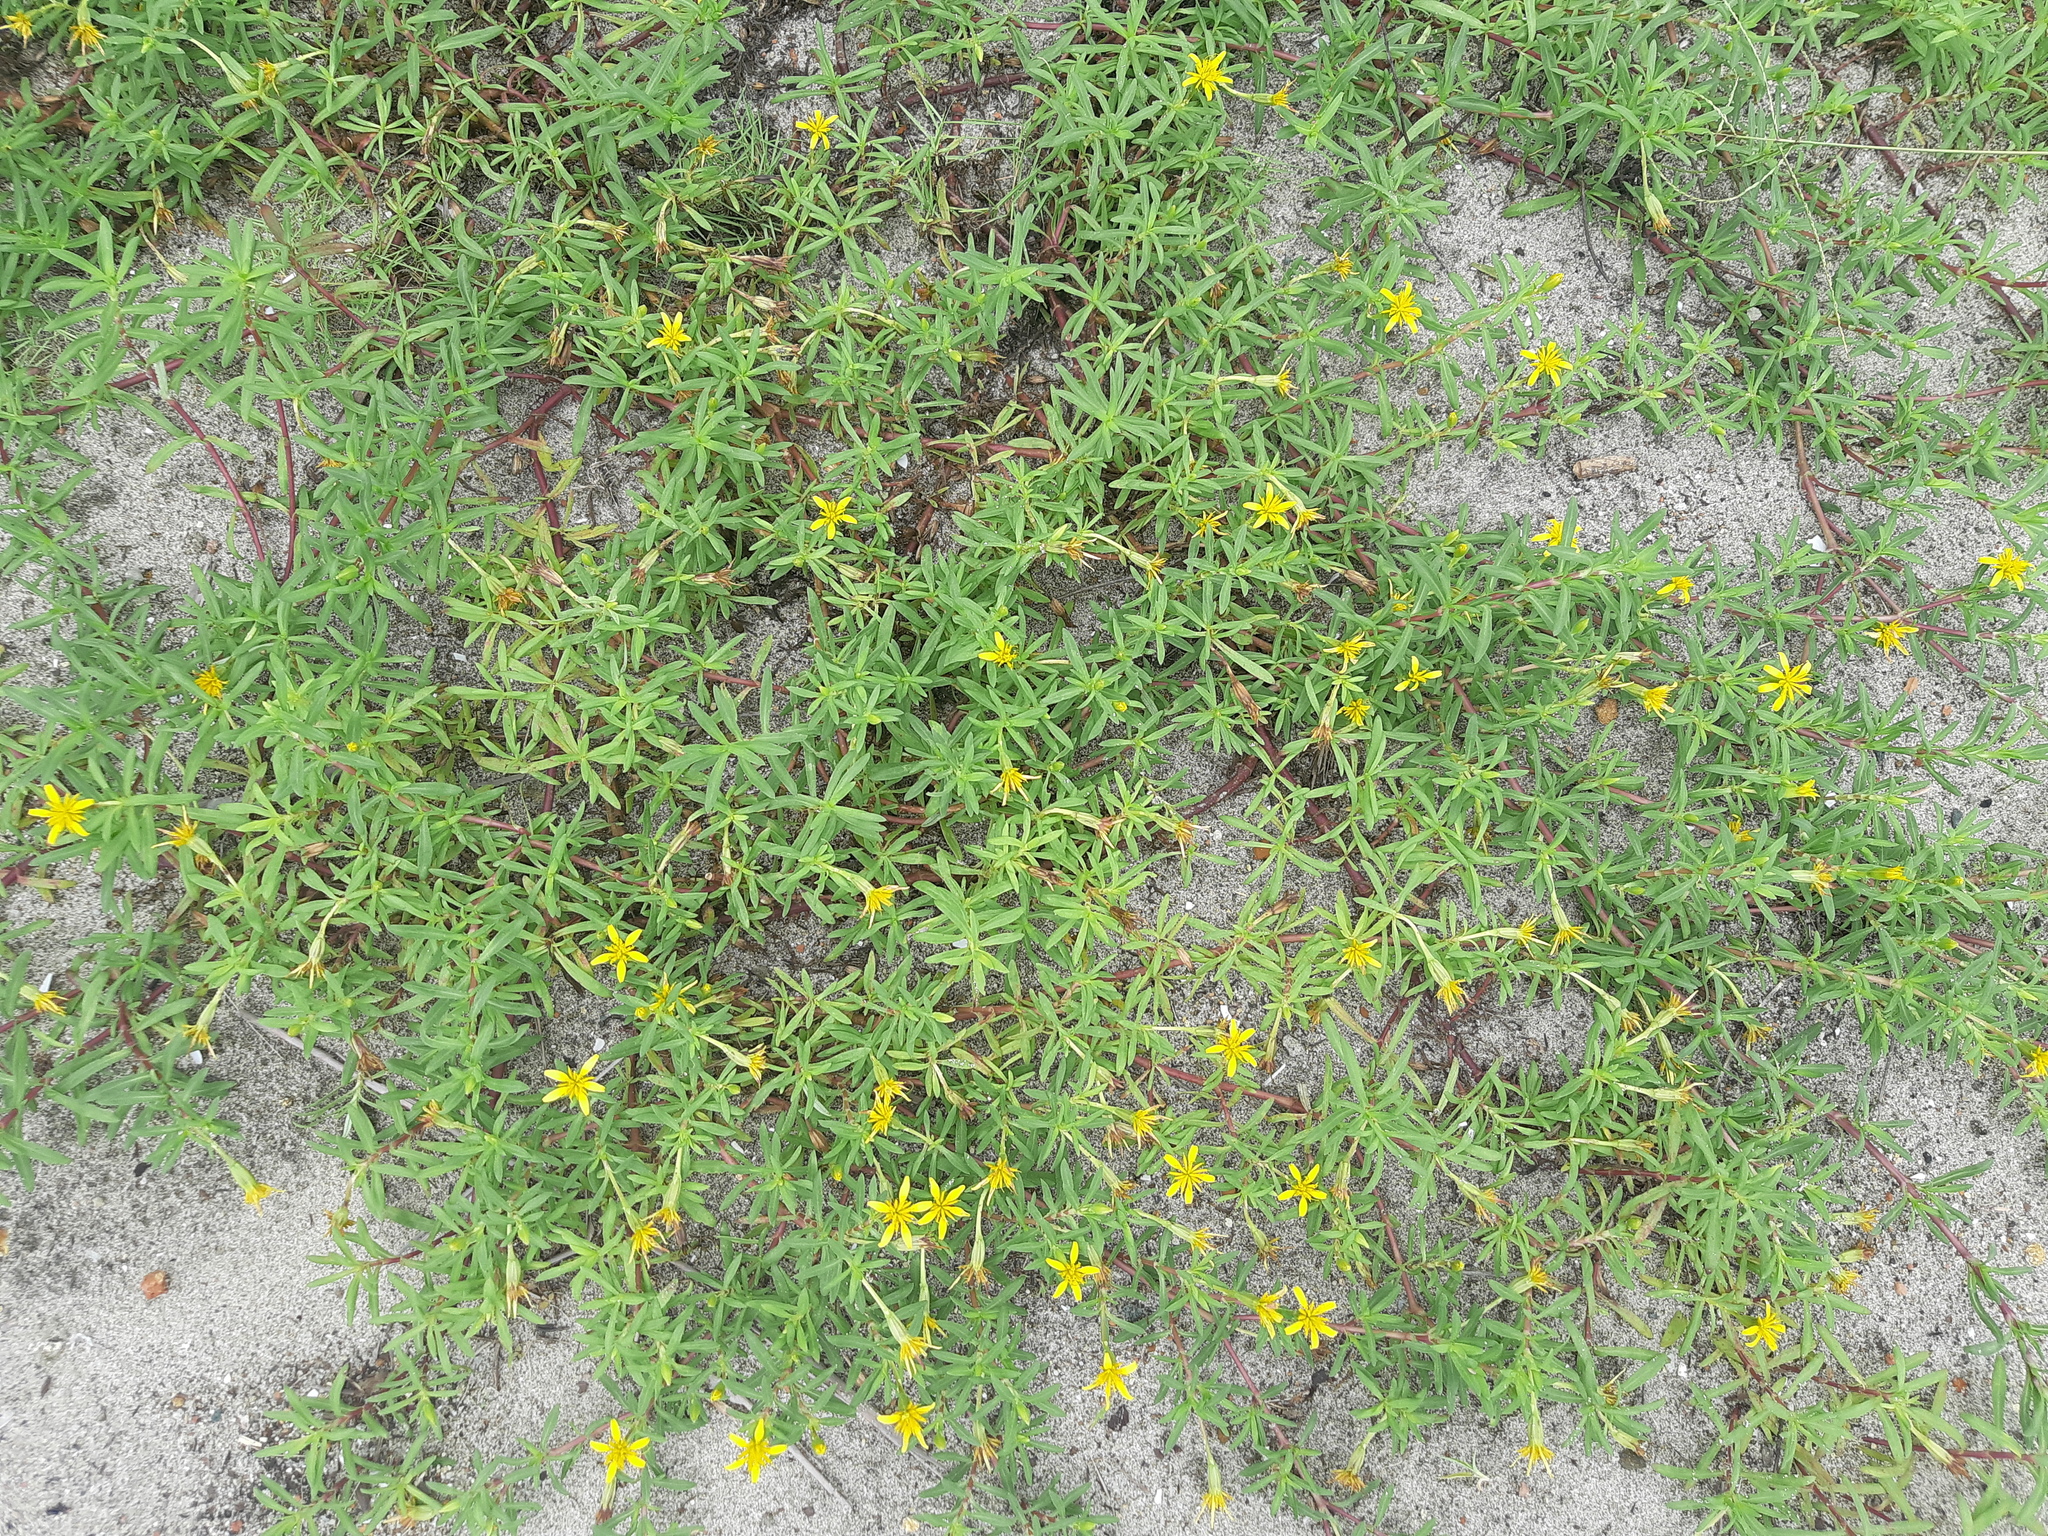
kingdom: Plantae
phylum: Tracheophyta
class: Magnoliopsida
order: Asterales
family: Asteraceae
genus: Pectis
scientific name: Pectis multiflosculosa
